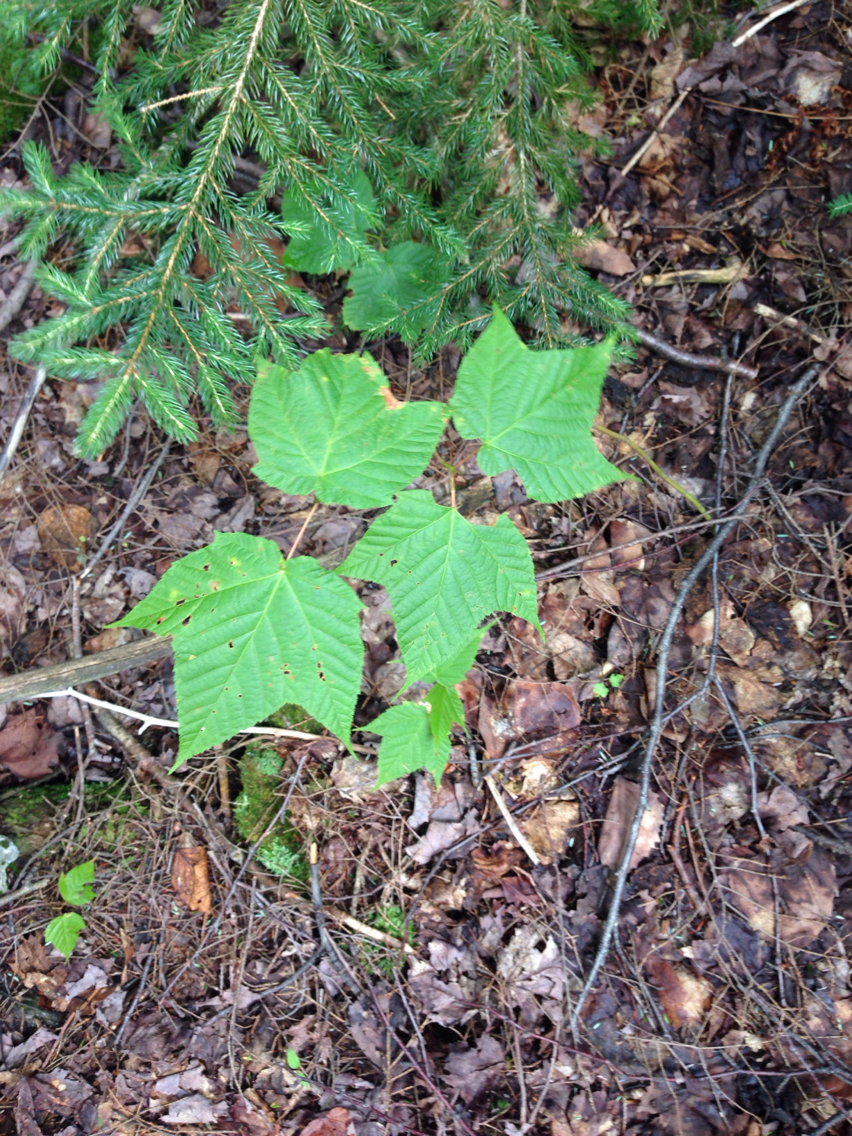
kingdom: Plantae
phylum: Tracheophyta
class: Magnoliopsida
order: Sapindales
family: Sapindaceae
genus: Acer
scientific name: Acer pensylvanicum
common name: Moosewood
